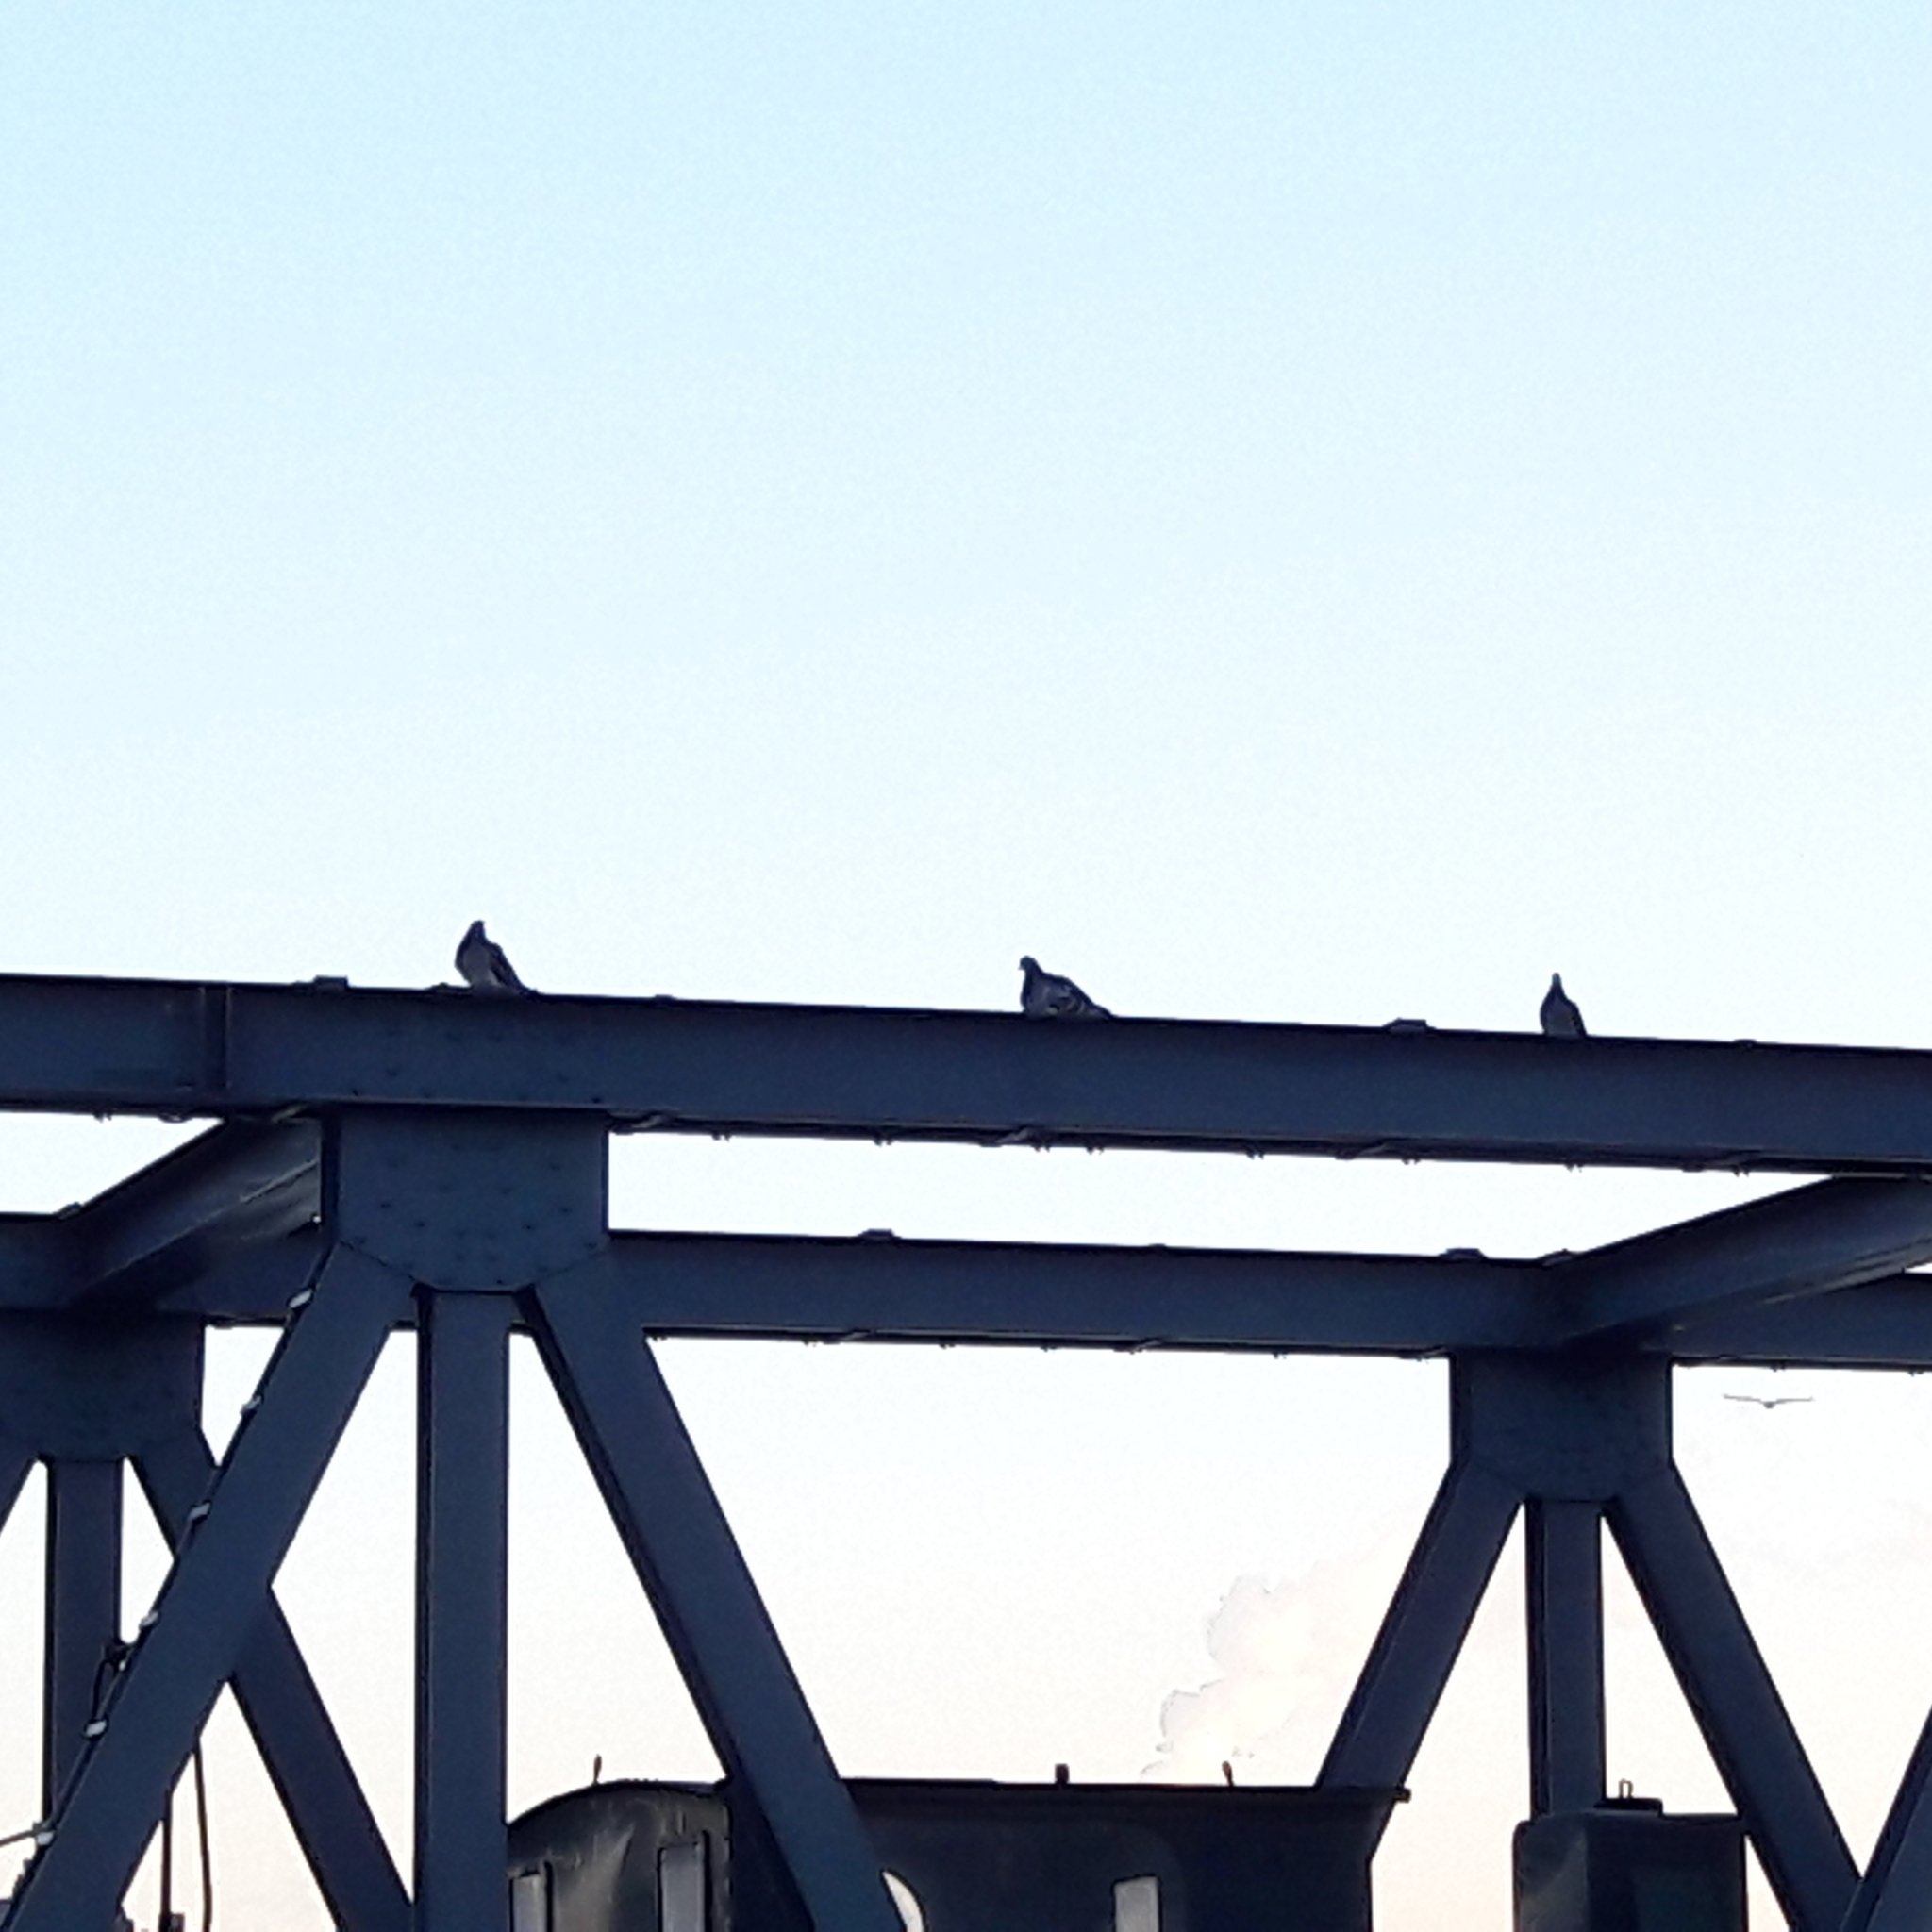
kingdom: Animalia
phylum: Chordata
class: Aves
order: Columbiformes
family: Columbidae
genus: Columba
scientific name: Columba livia
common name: Rock pigeon
